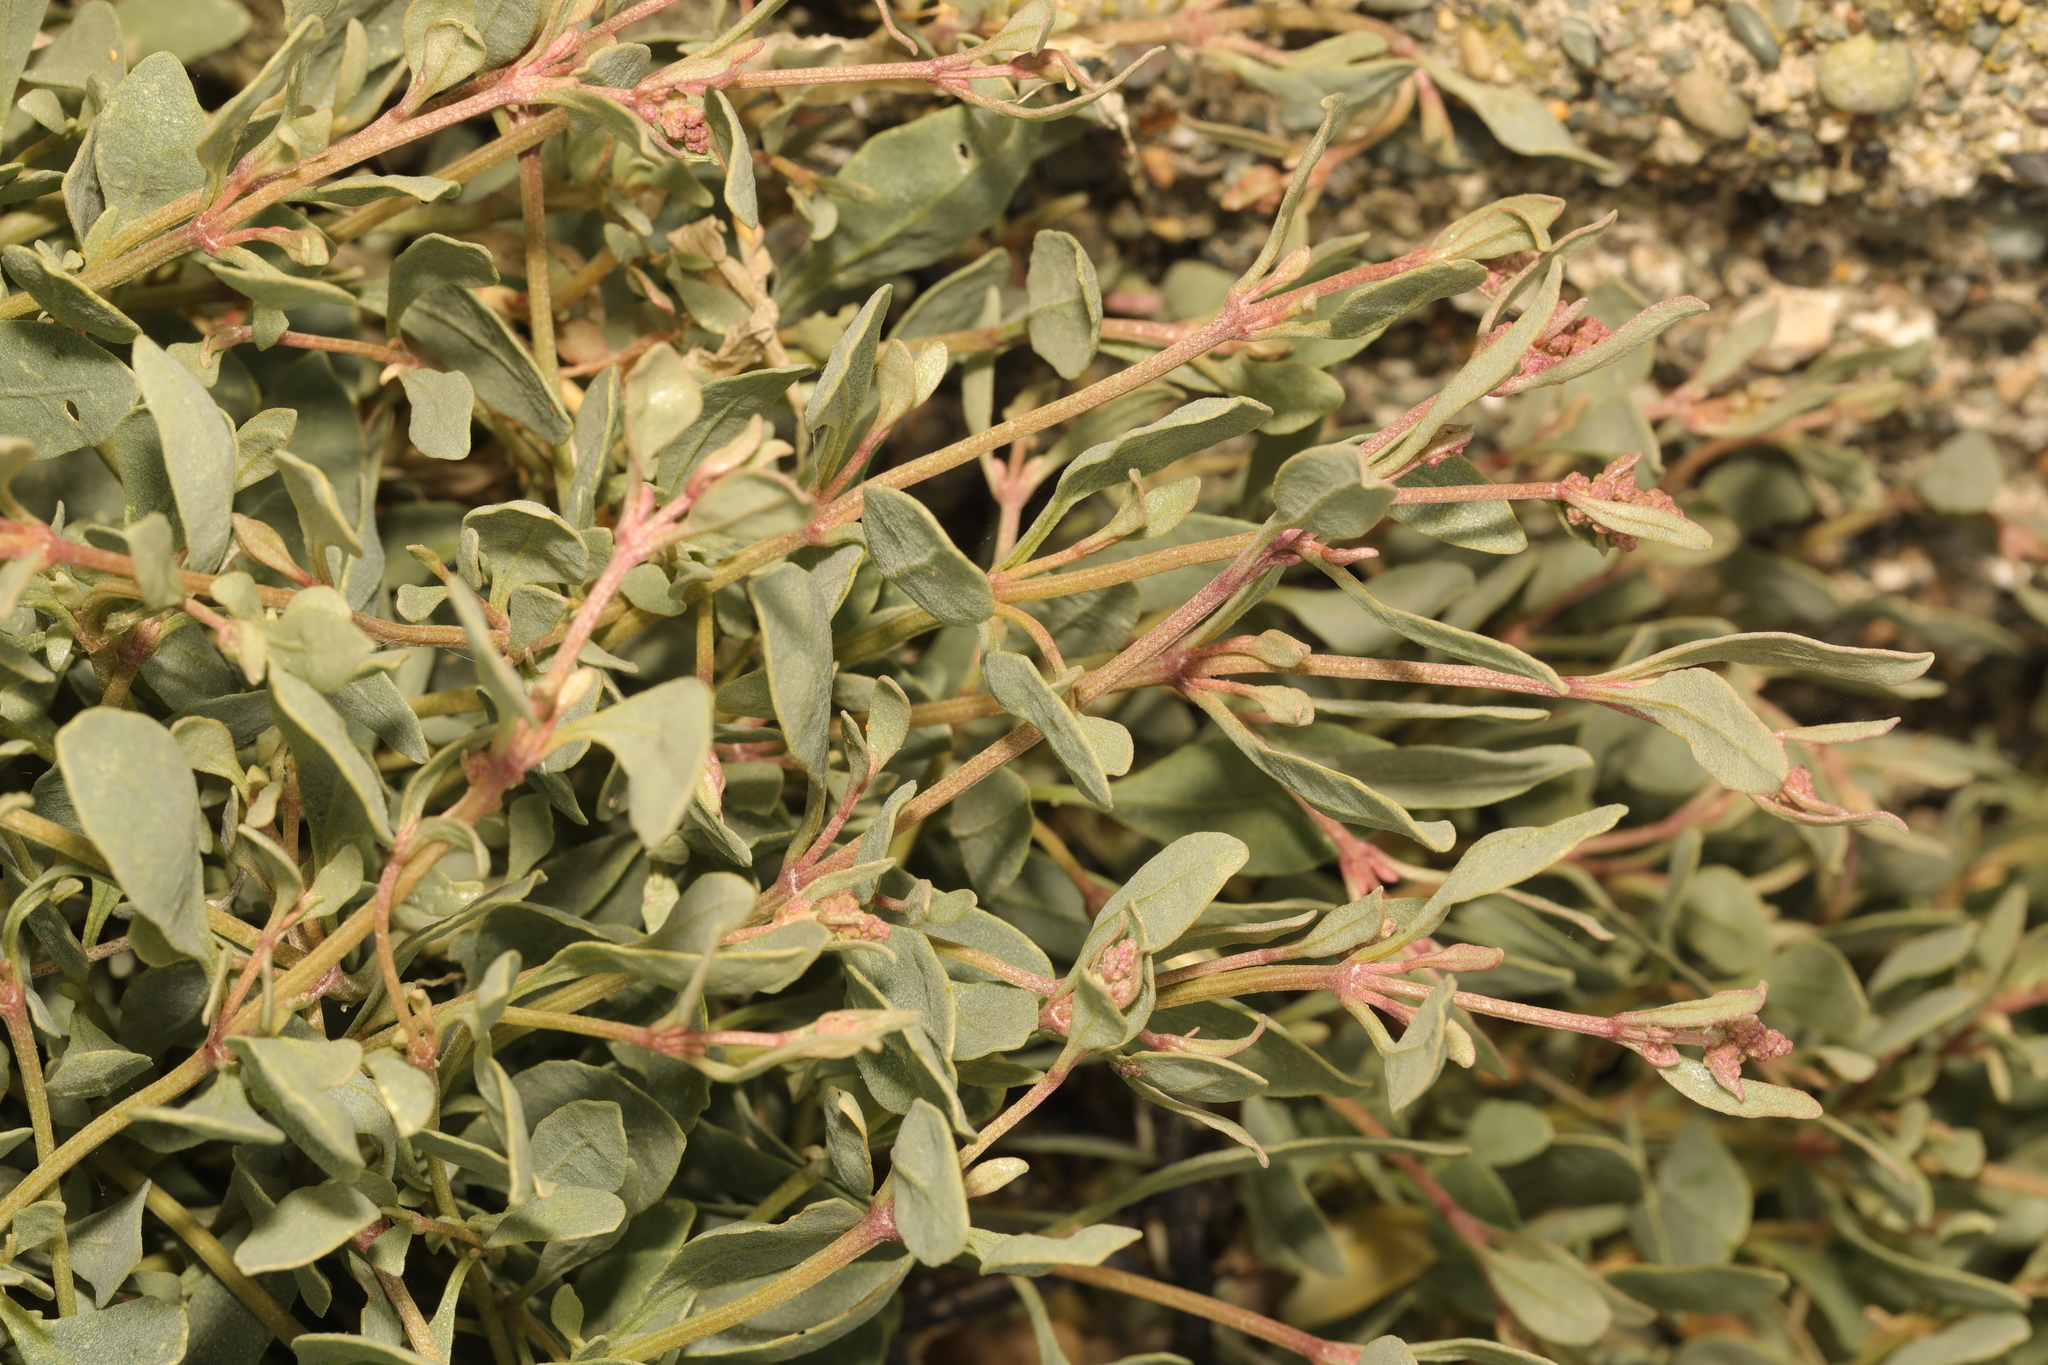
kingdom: Plantae
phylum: Tracheophyta
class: Magnoliopsida
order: Caryophyllales
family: Amaranthaceae
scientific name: Amaranthaceae
